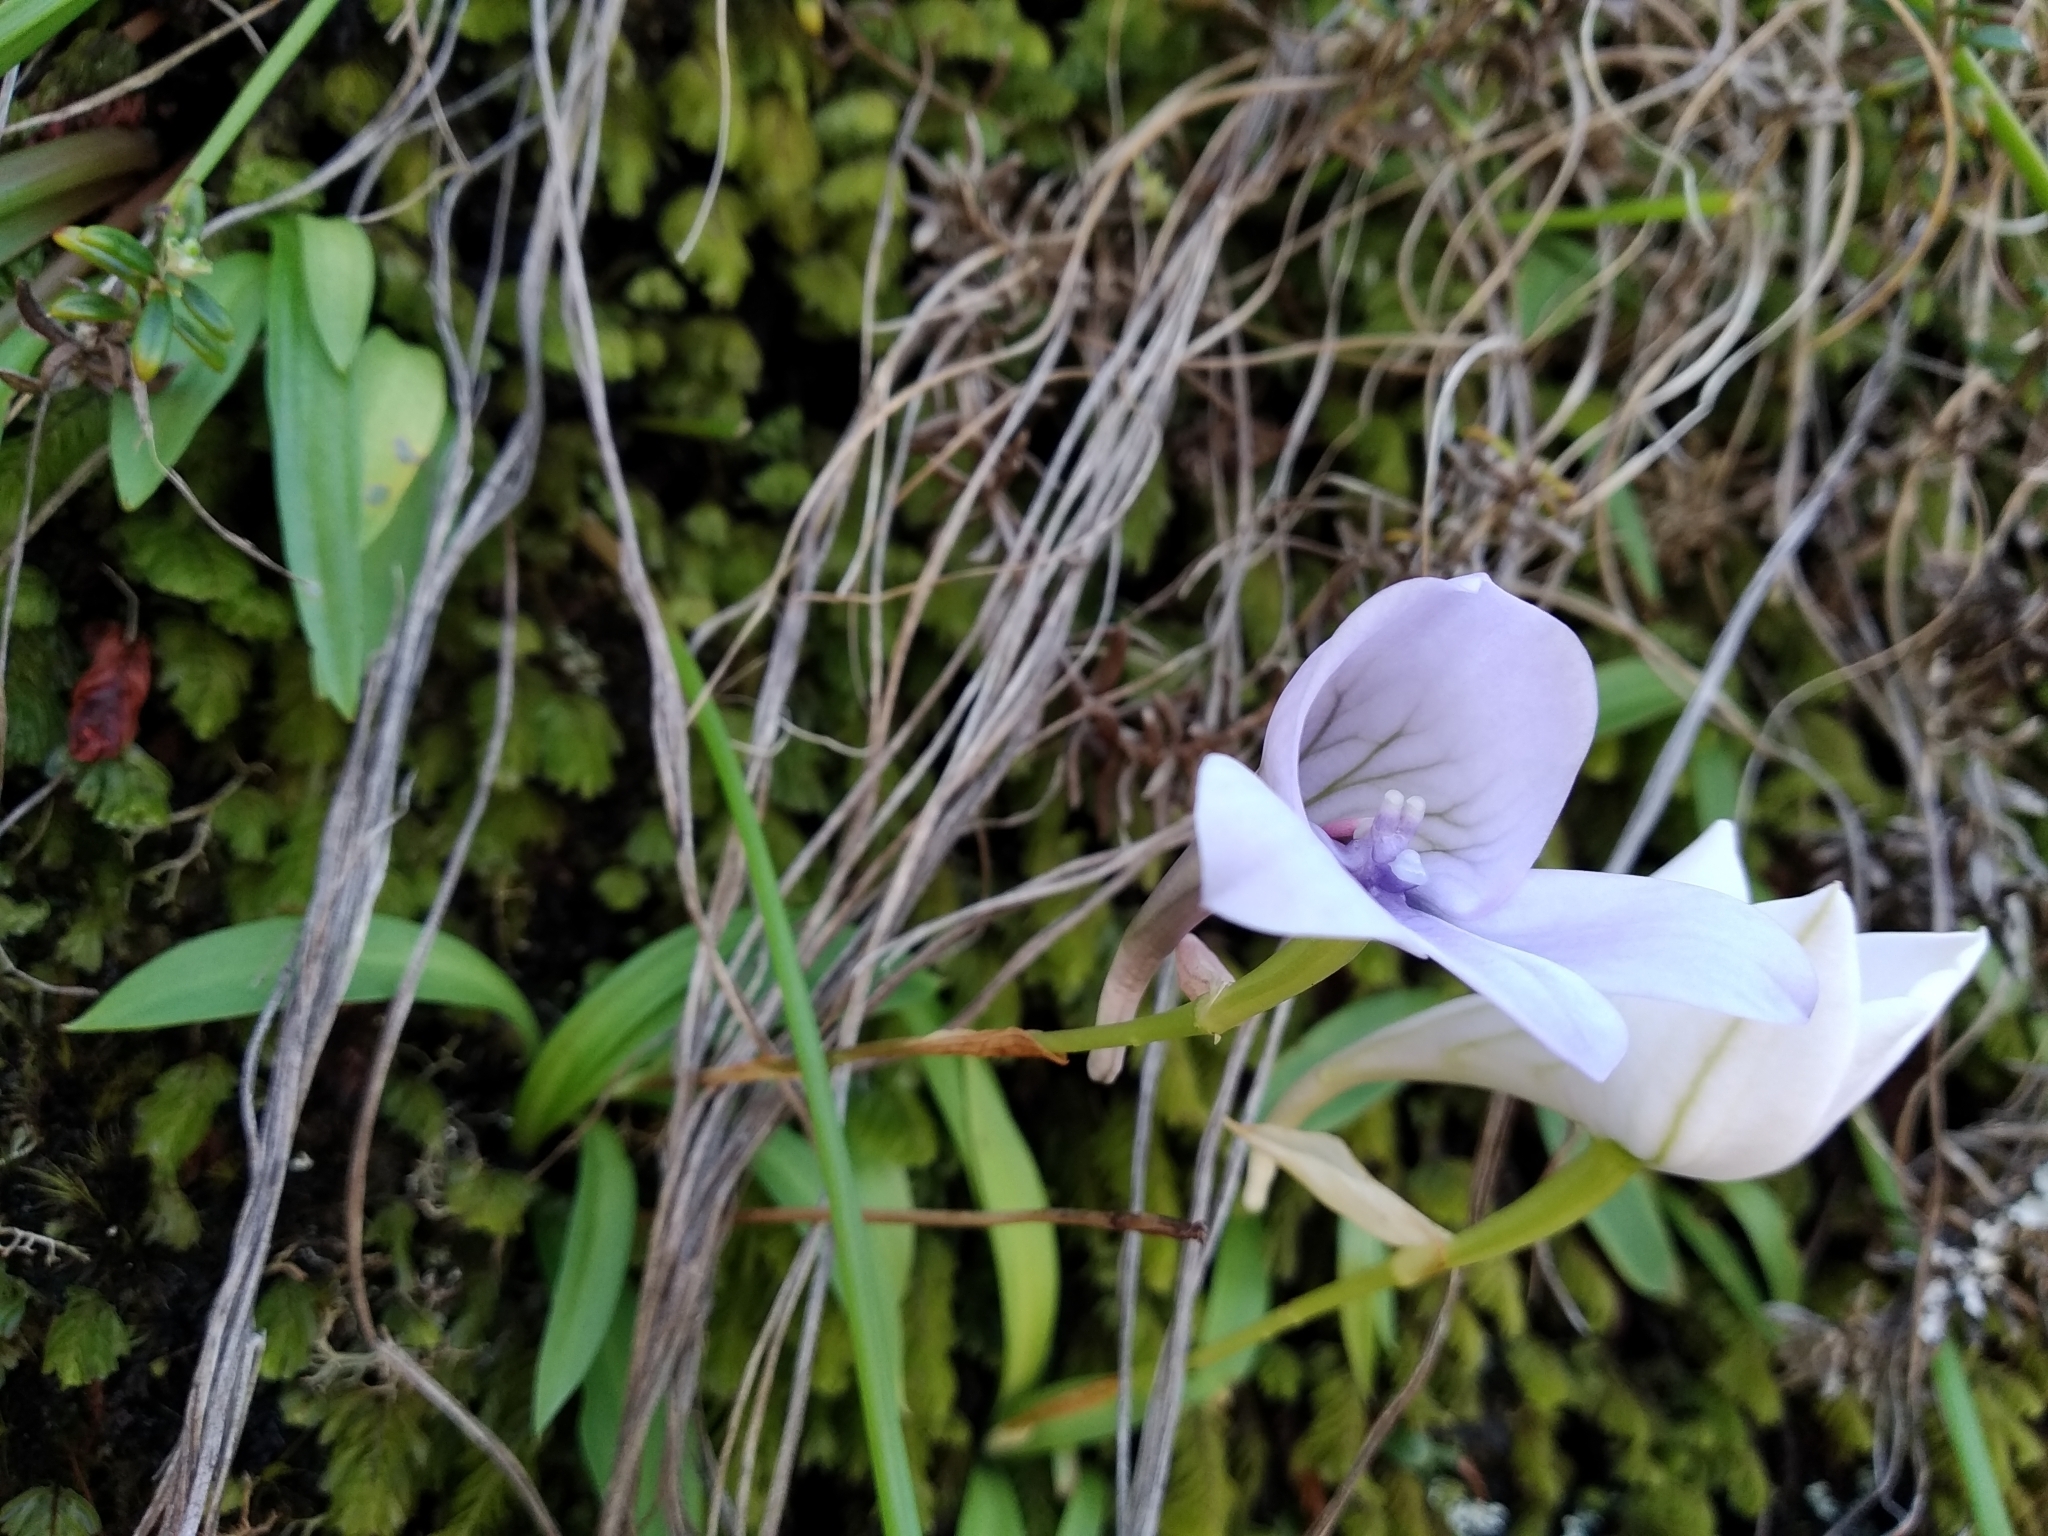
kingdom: Plantae
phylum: Tracheophyta
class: Liliopsida
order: Asparagales
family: Orchidaceae
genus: Disa
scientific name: Disa longicornu
